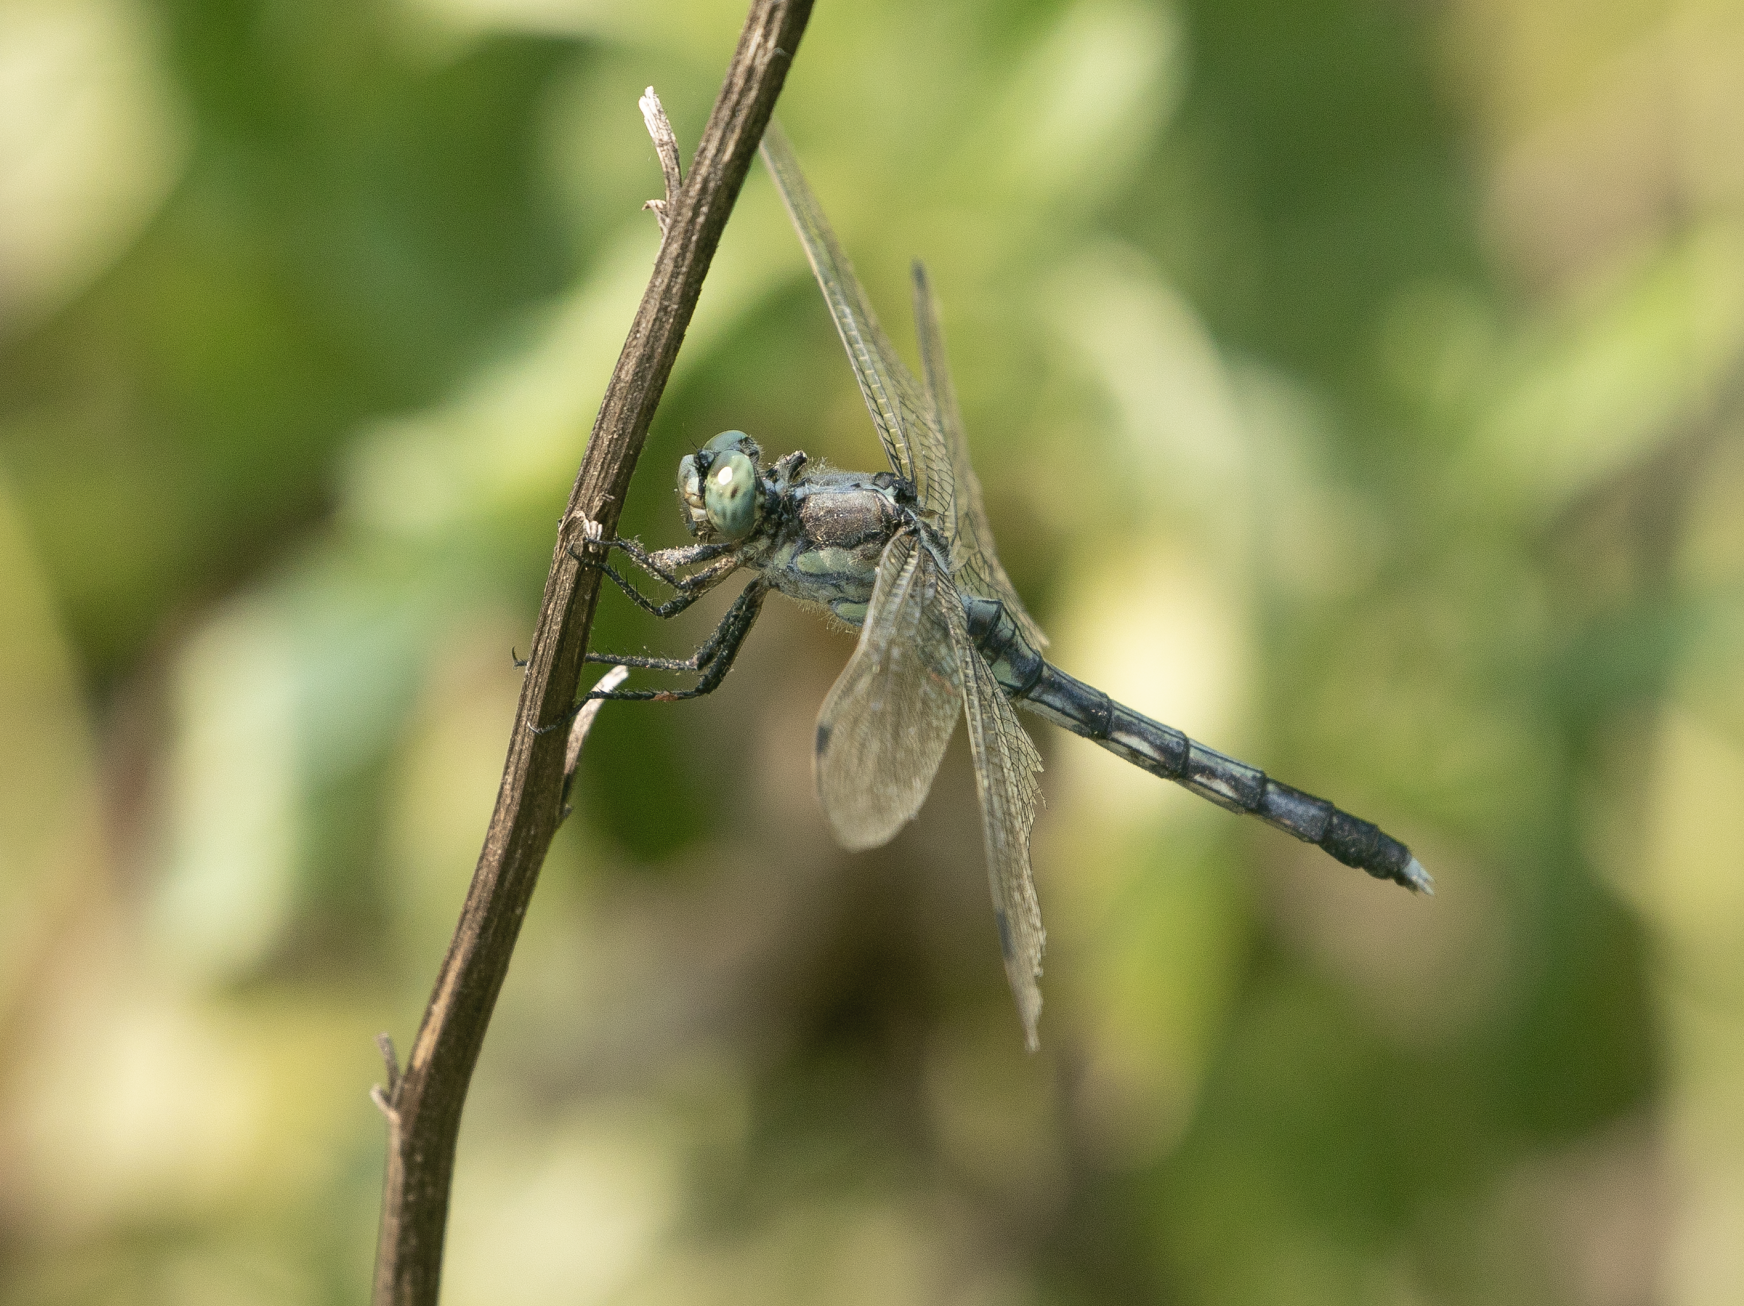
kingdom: Animalia
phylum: Arthropoda
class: Insecta
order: Odonata
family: Libellulidae
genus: Orthetrum
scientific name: Orthetrum albistylum
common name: White-tailed skimmer
